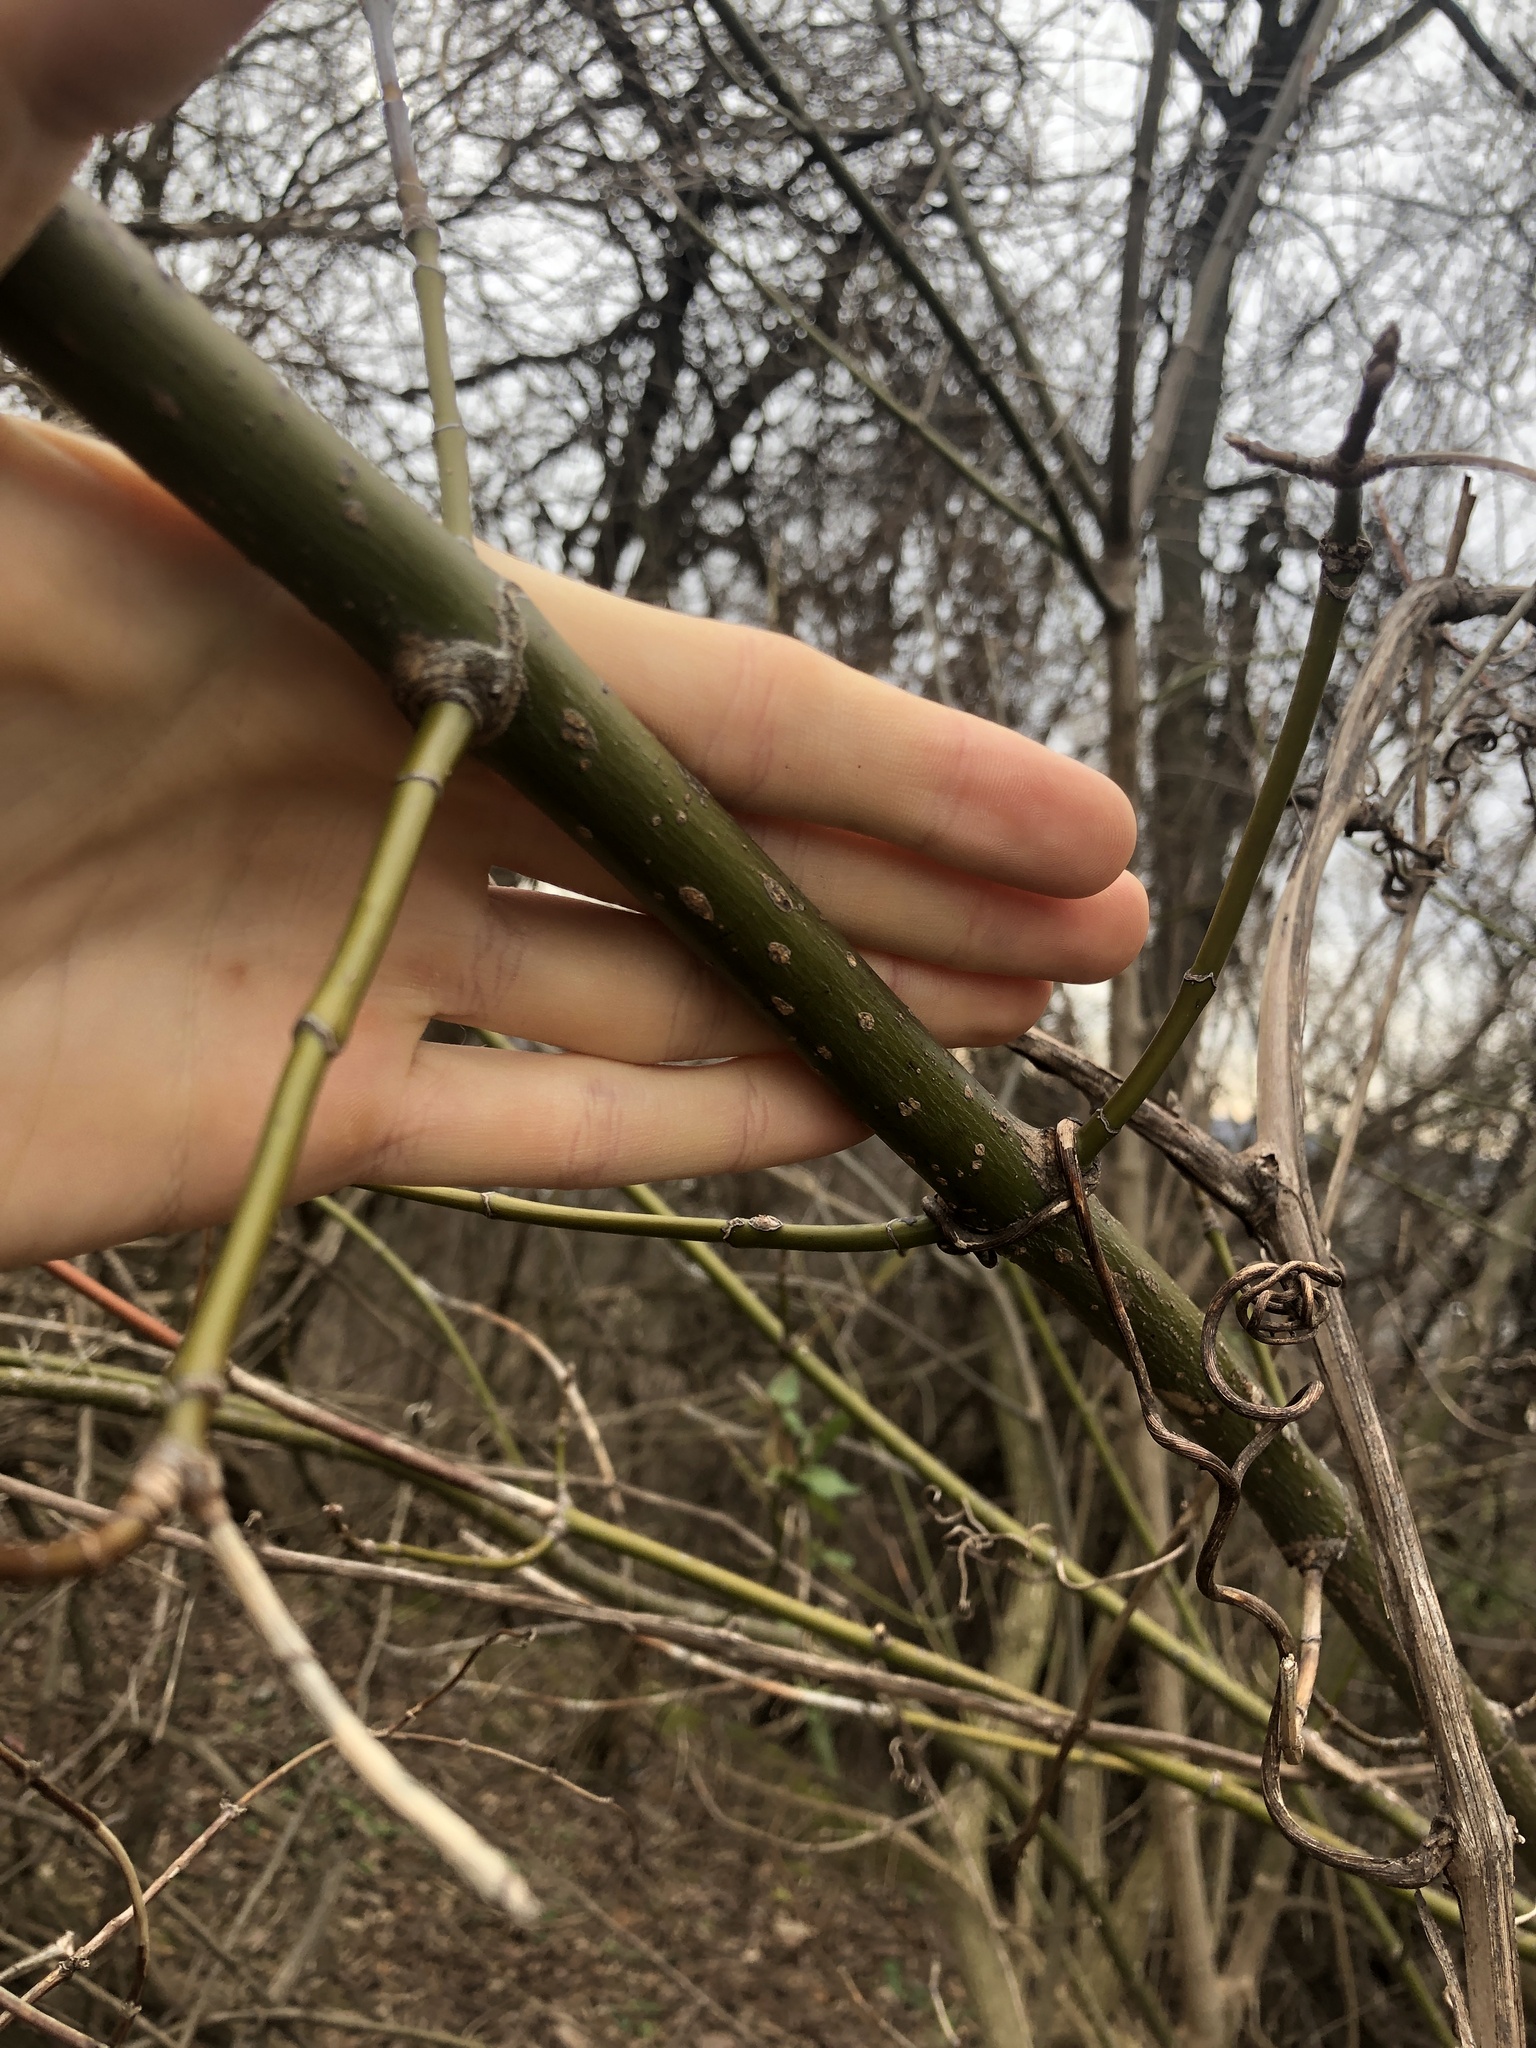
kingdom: Plantae
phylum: Tracheophyta
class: Magnoliopsida
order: Sapindales
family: Sapindaceae
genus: Acer
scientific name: Acer negundo
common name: Ashleaf maple
